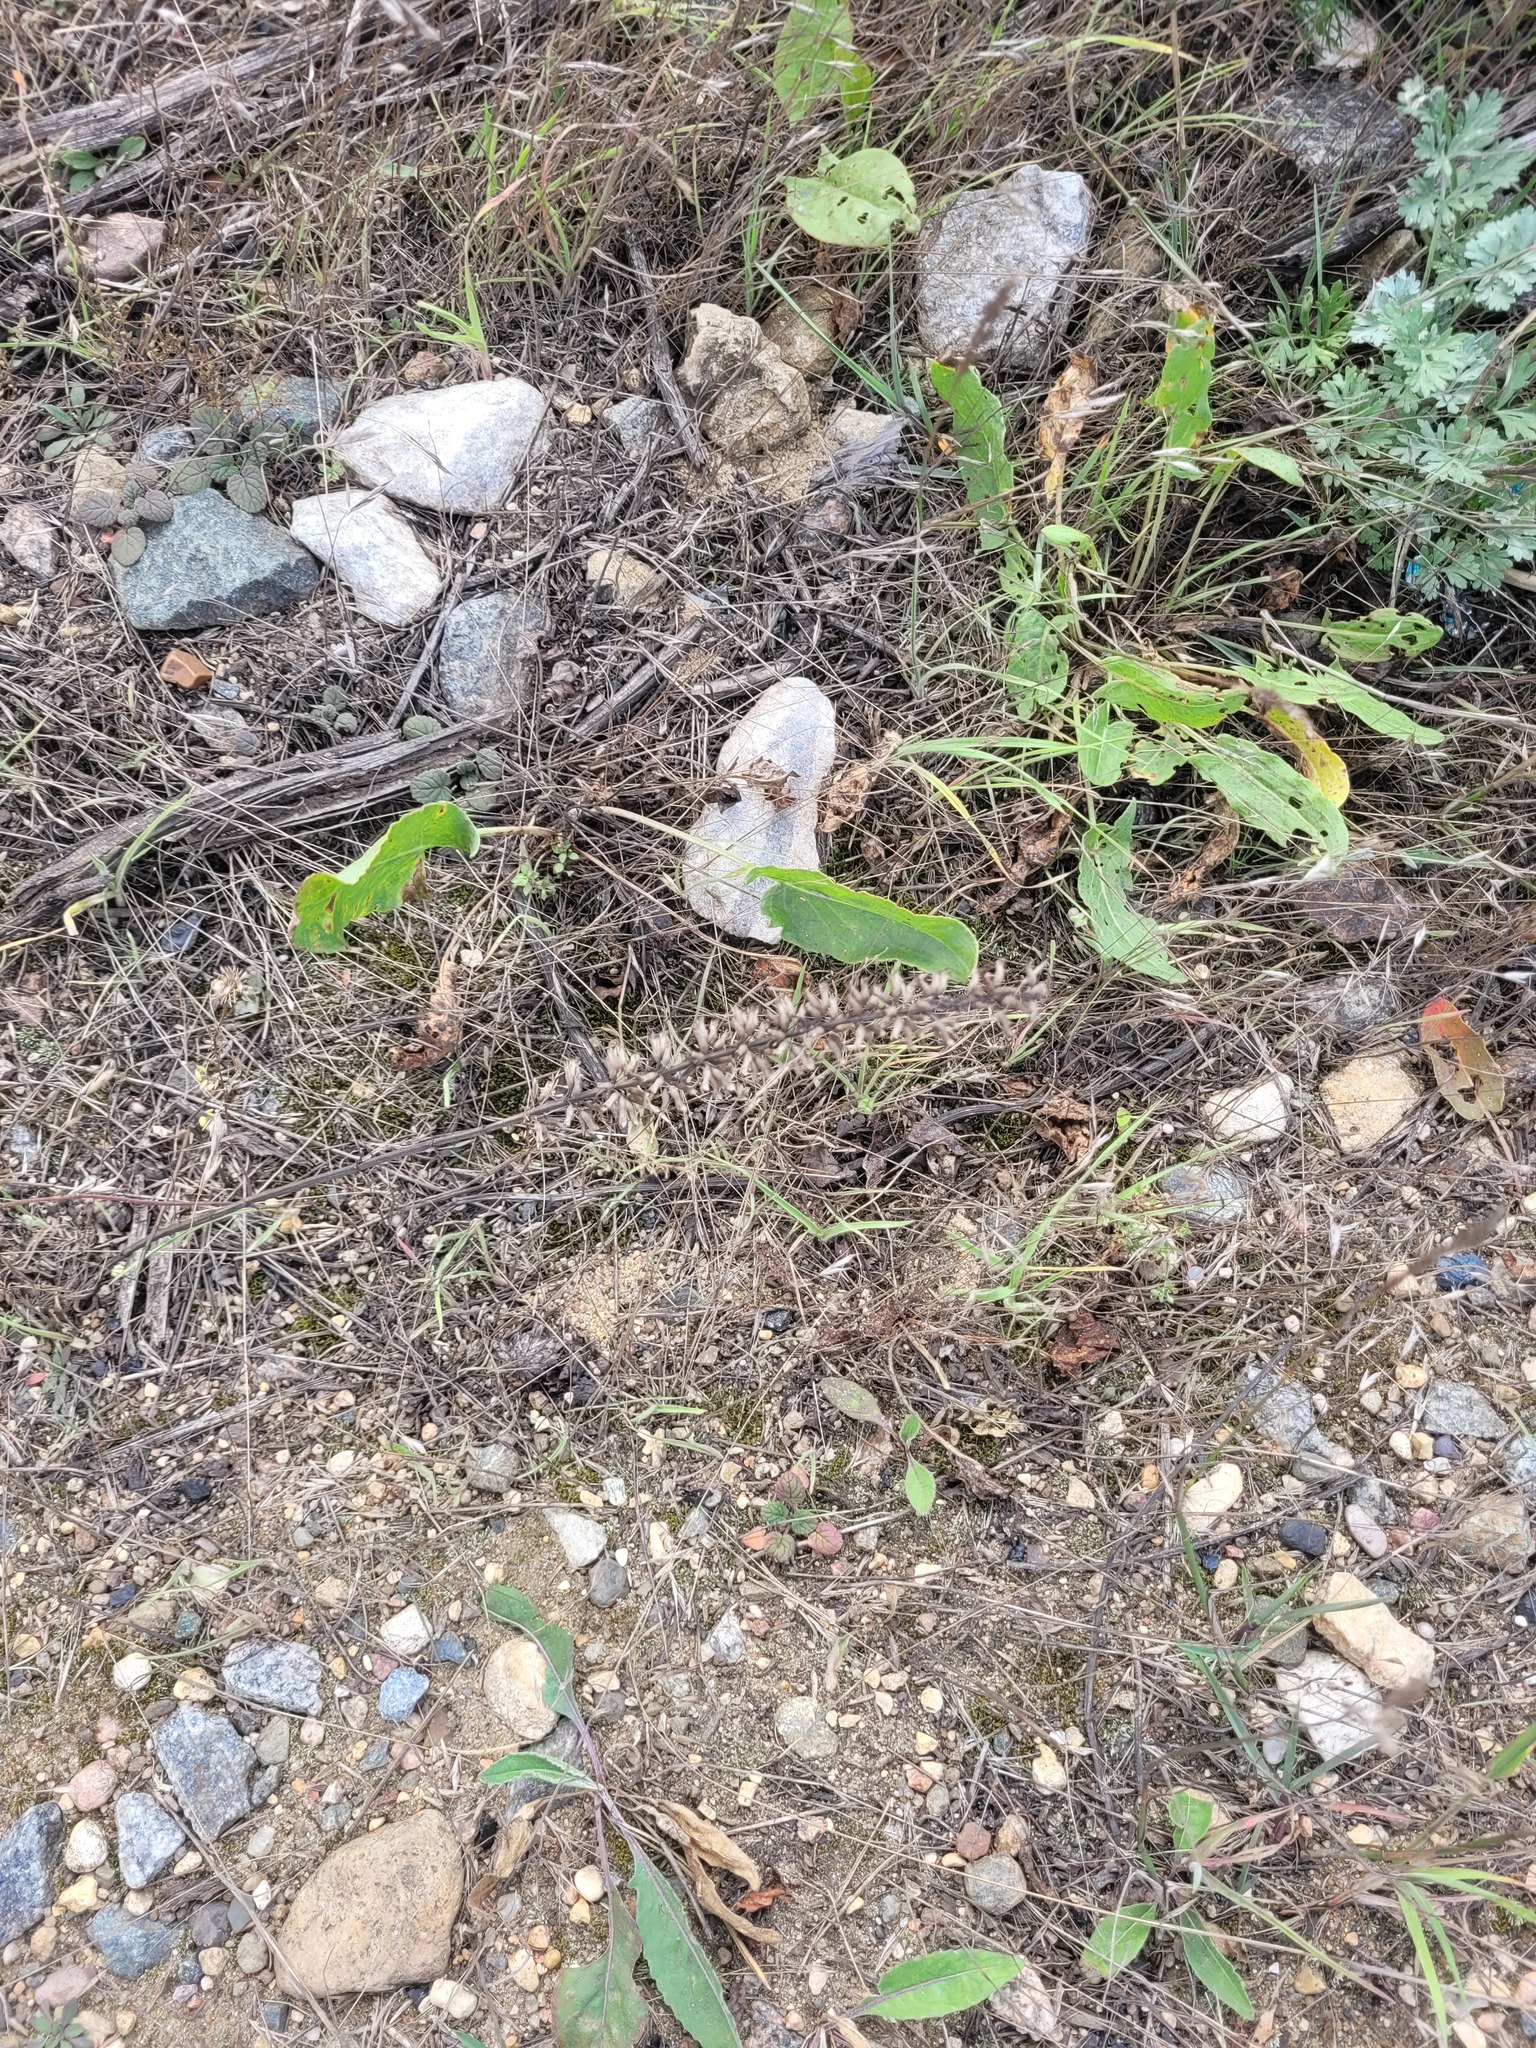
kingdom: Plantae
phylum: Tracheophyta
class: Magnoliopsida
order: Lamiales
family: Lamiaceae
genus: Dracocephalum
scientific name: Dracocephalum thymiflorum
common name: Thymeleaf dragonhead
